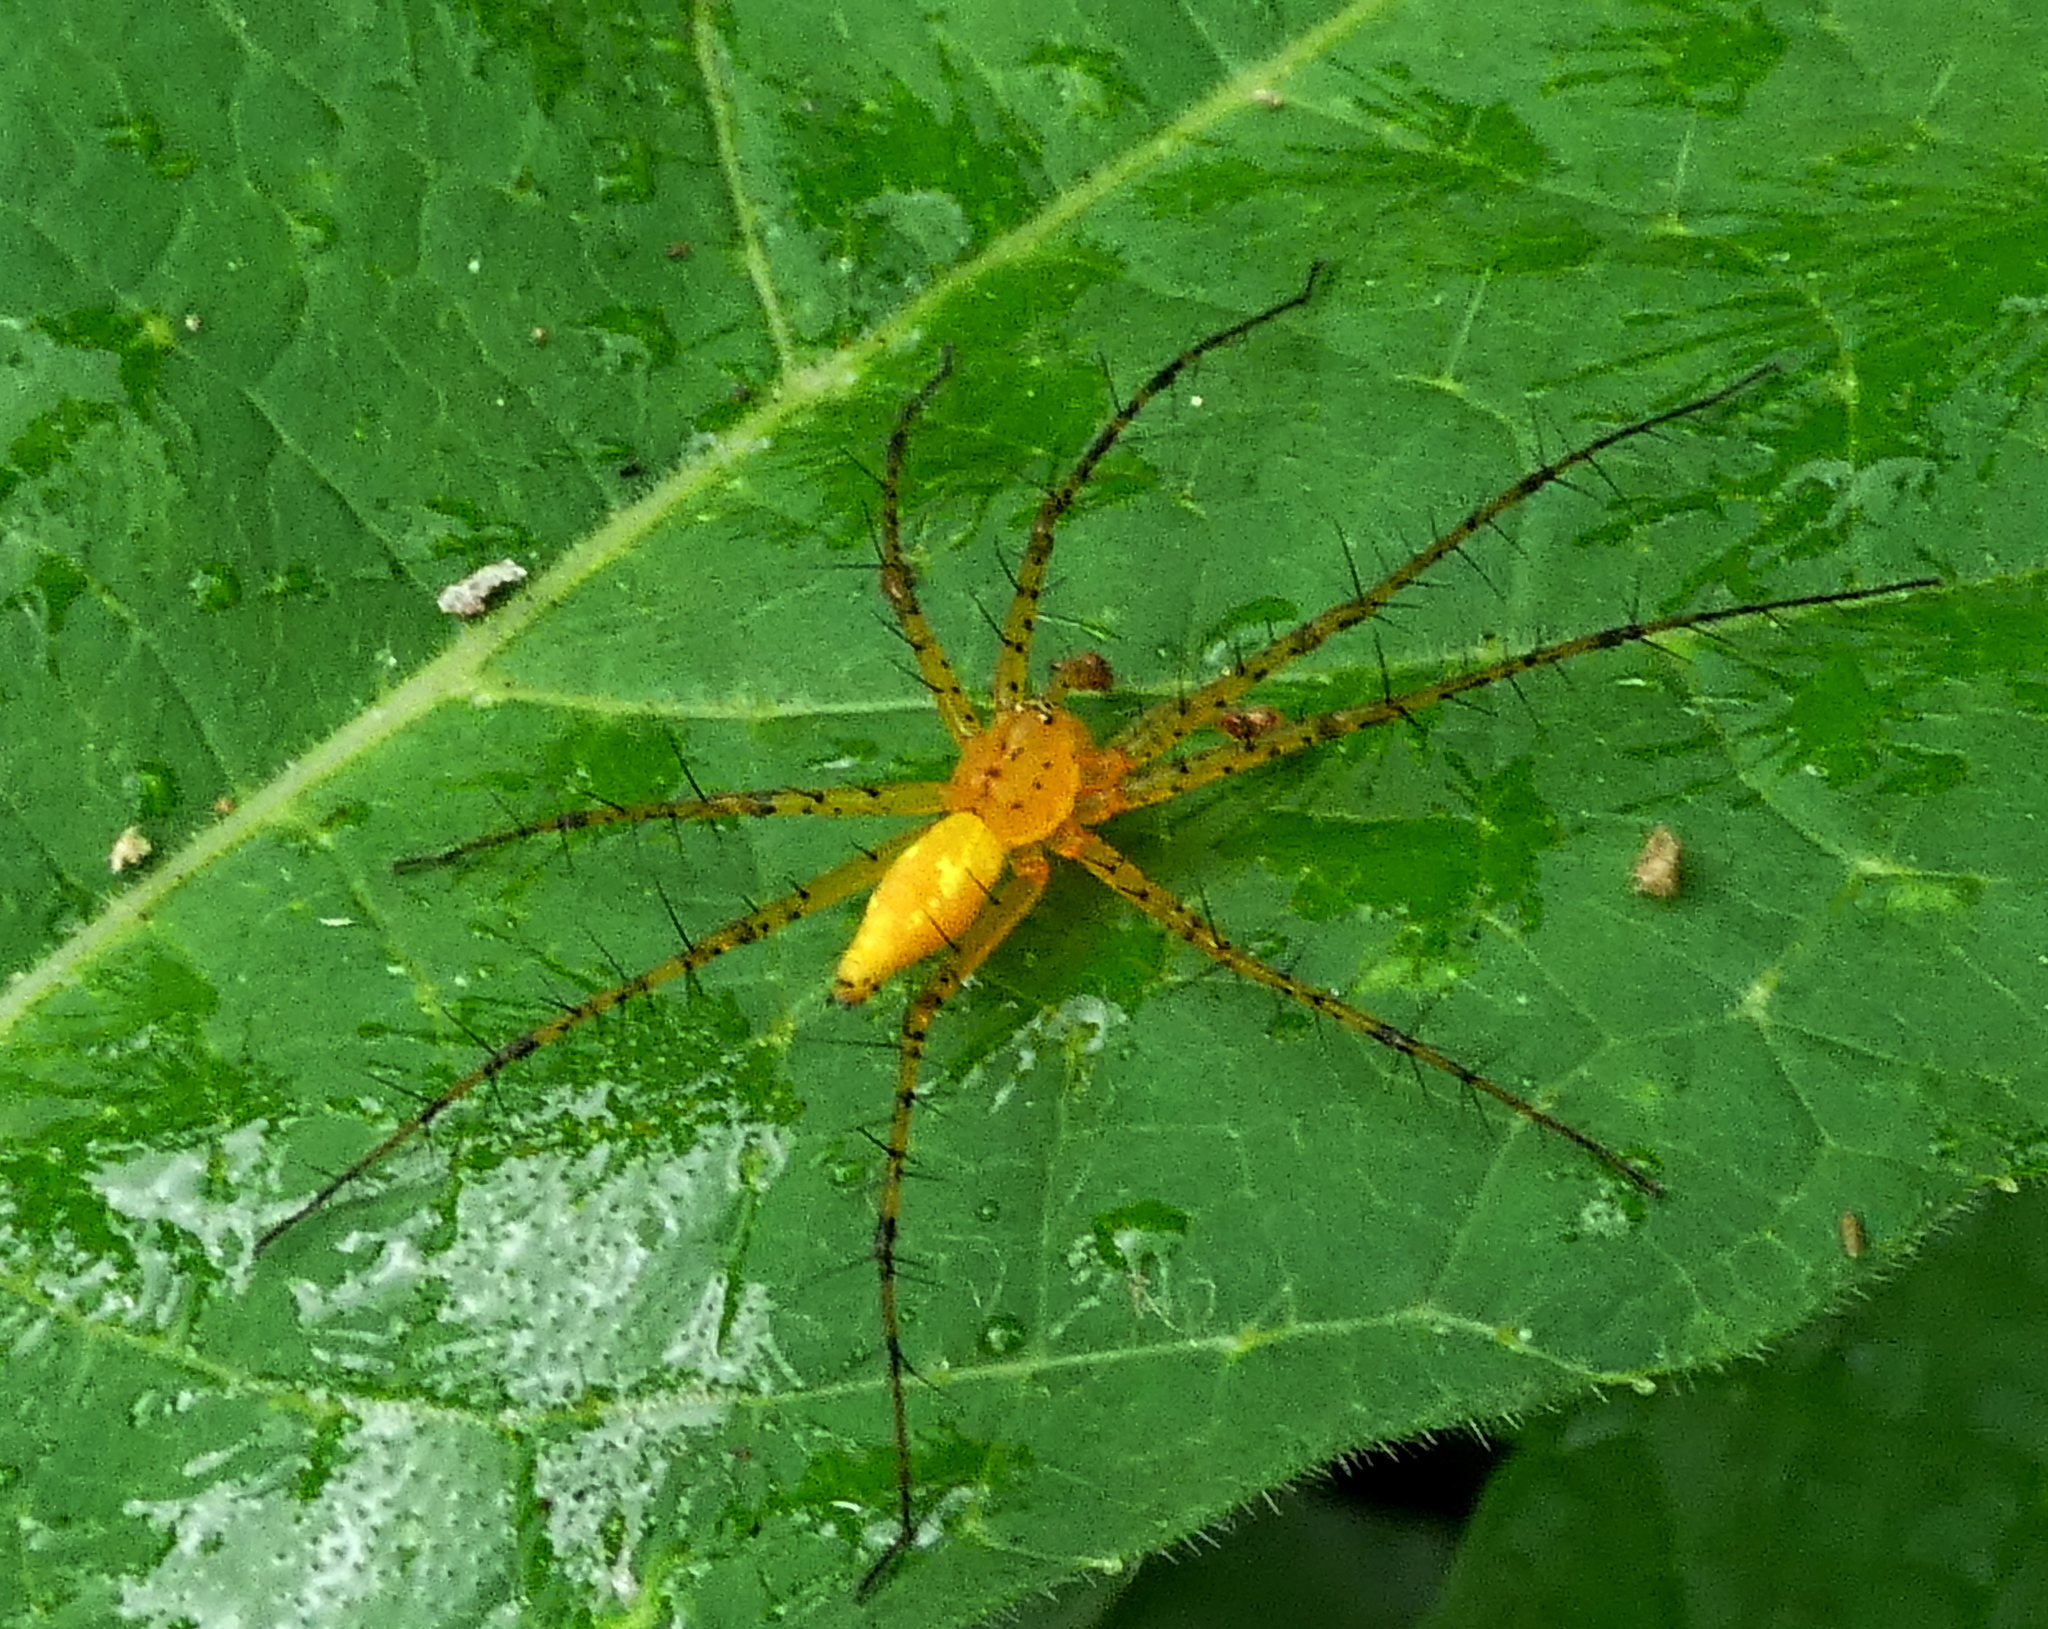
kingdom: Animalia
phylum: Arthropoda
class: Arachnida
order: Araneae
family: Pisauridae
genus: Architis
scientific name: Architis spinipes
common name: Nursery web spiders
